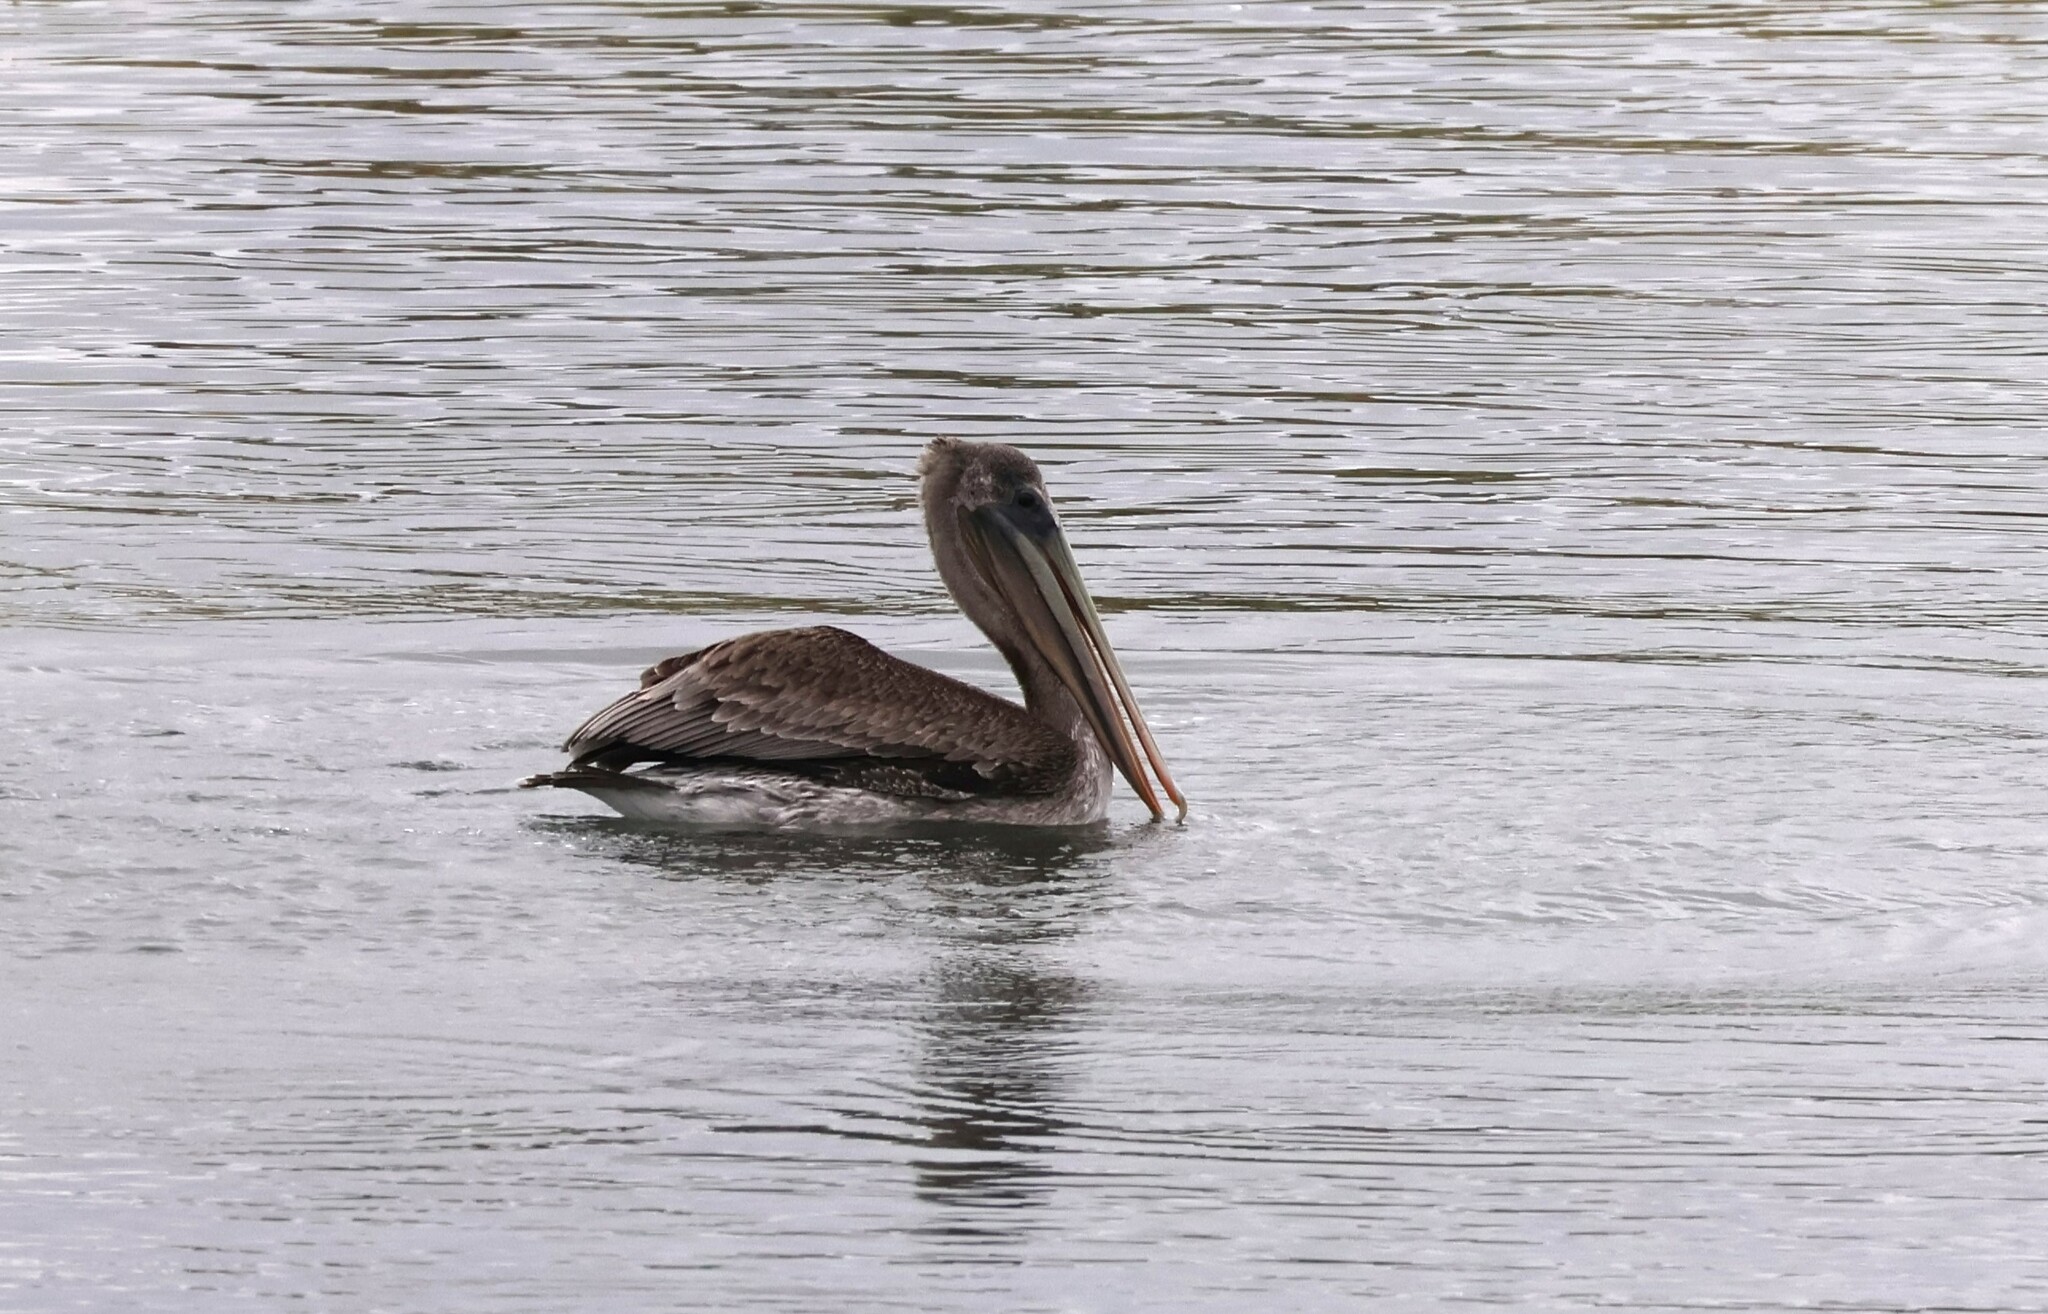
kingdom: Animalia
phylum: Chordata
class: Aves
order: Pelecaniformes
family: Pelecanidae
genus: Pelecanus
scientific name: Pelecanus occidentalis
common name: Brown pelican
